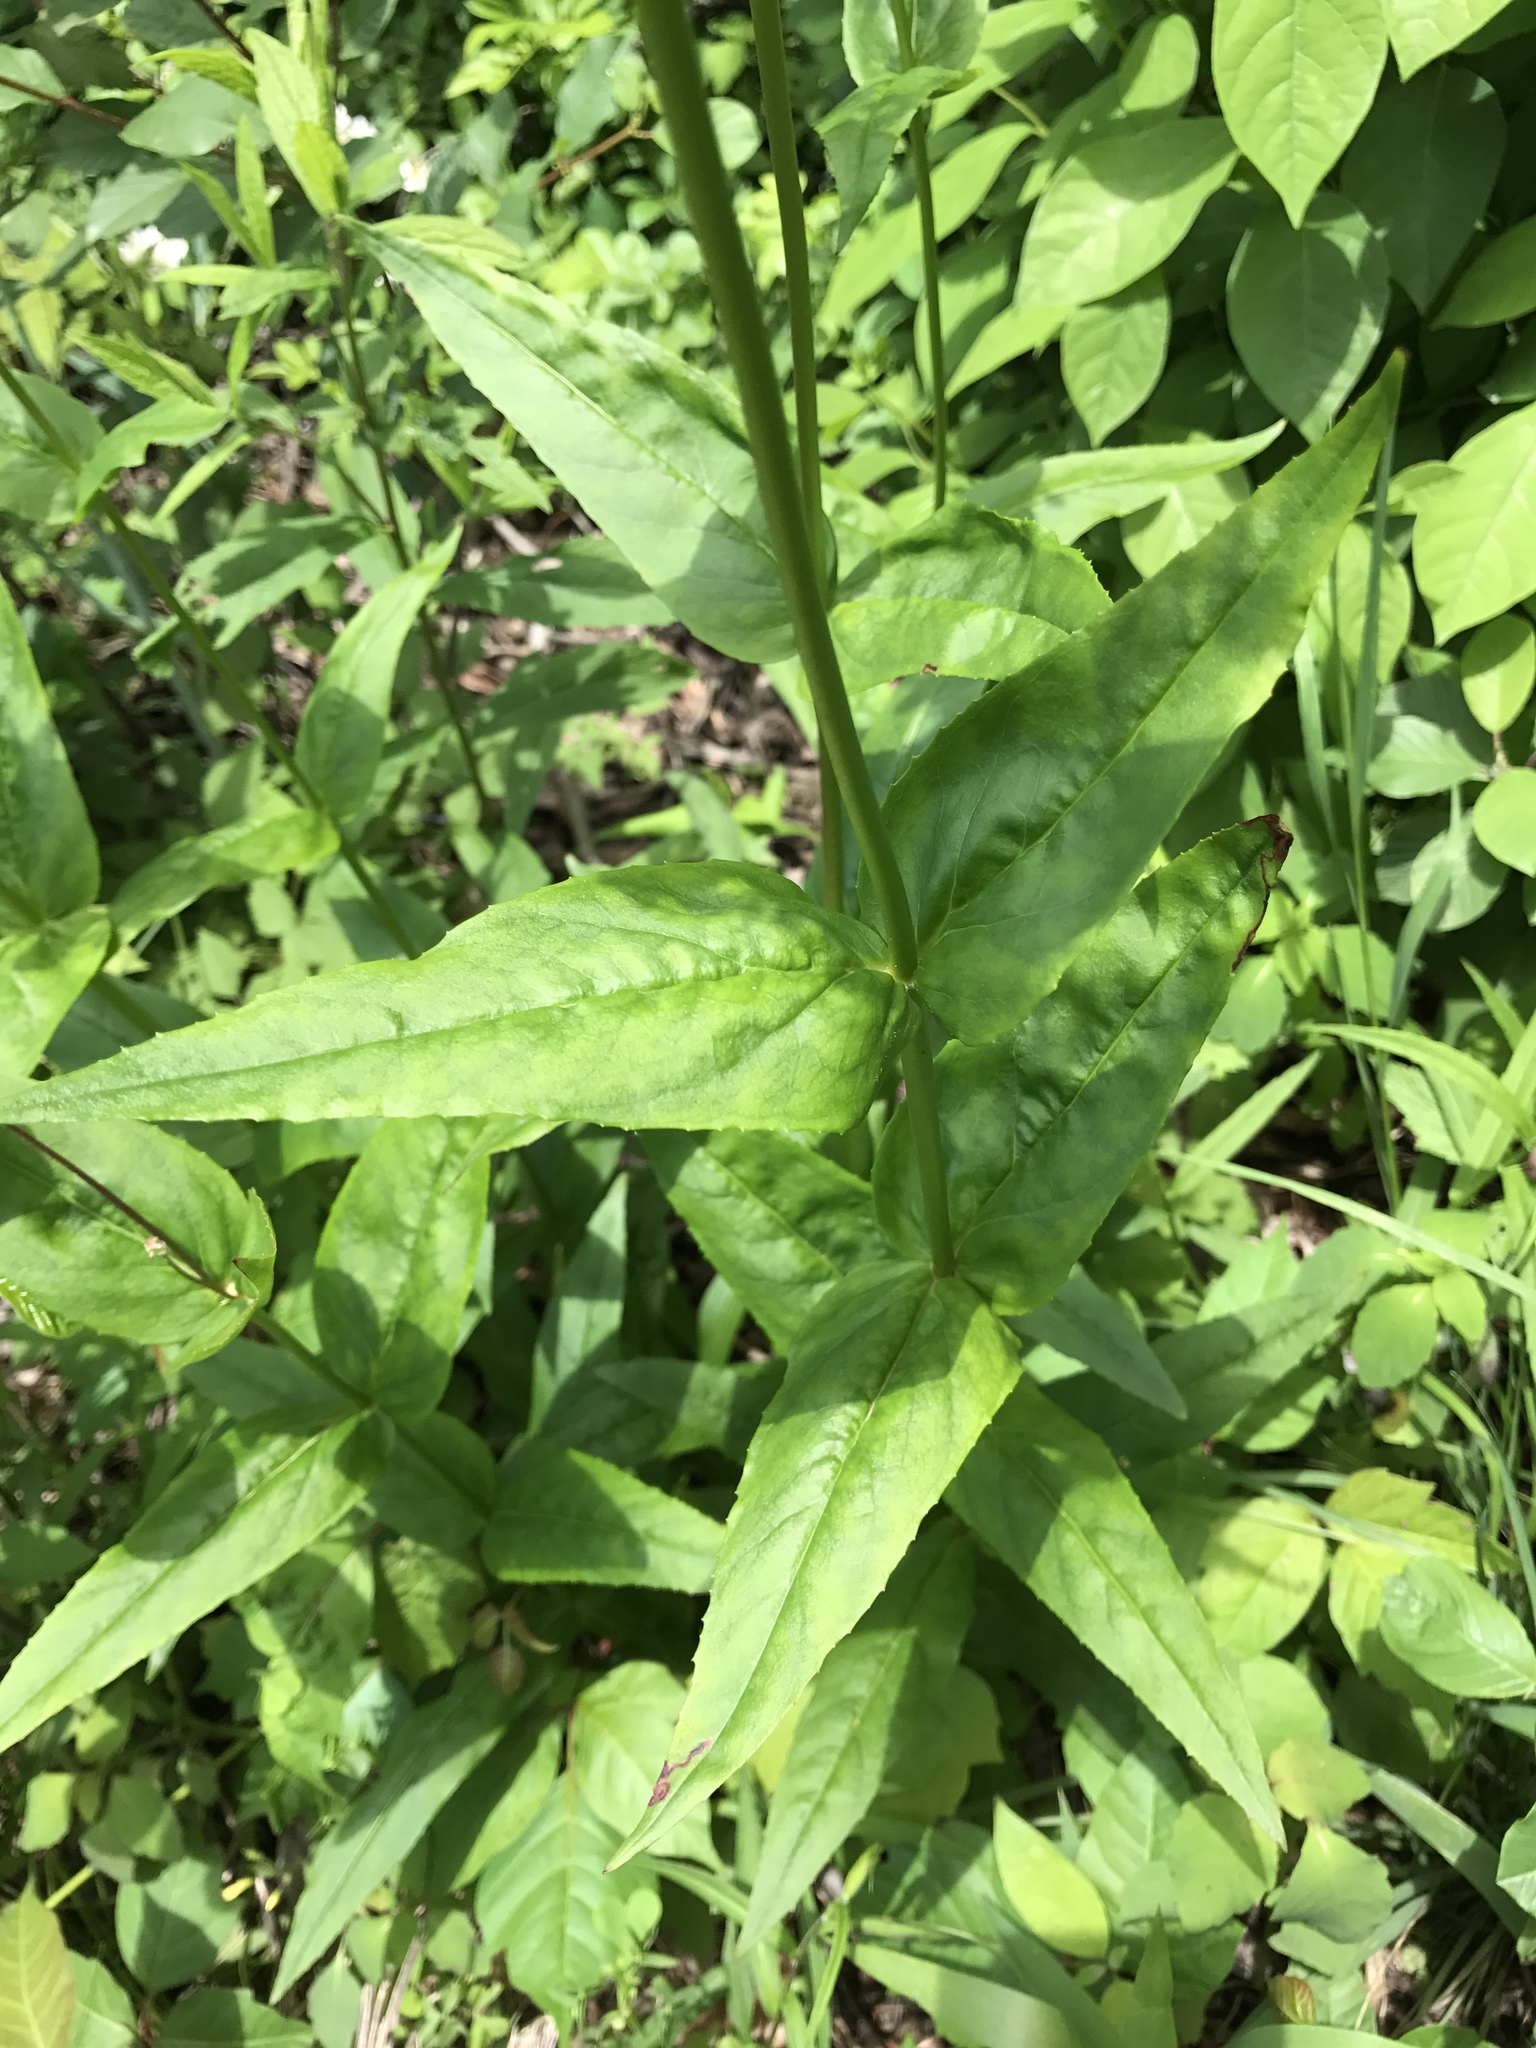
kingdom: Plantae
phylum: Tracheophyta
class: Magnoliopsida
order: Lamiales
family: Plantaginaceae
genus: Penstemon
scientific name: Penstemon digitalis
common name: Foxglove beardtongue
